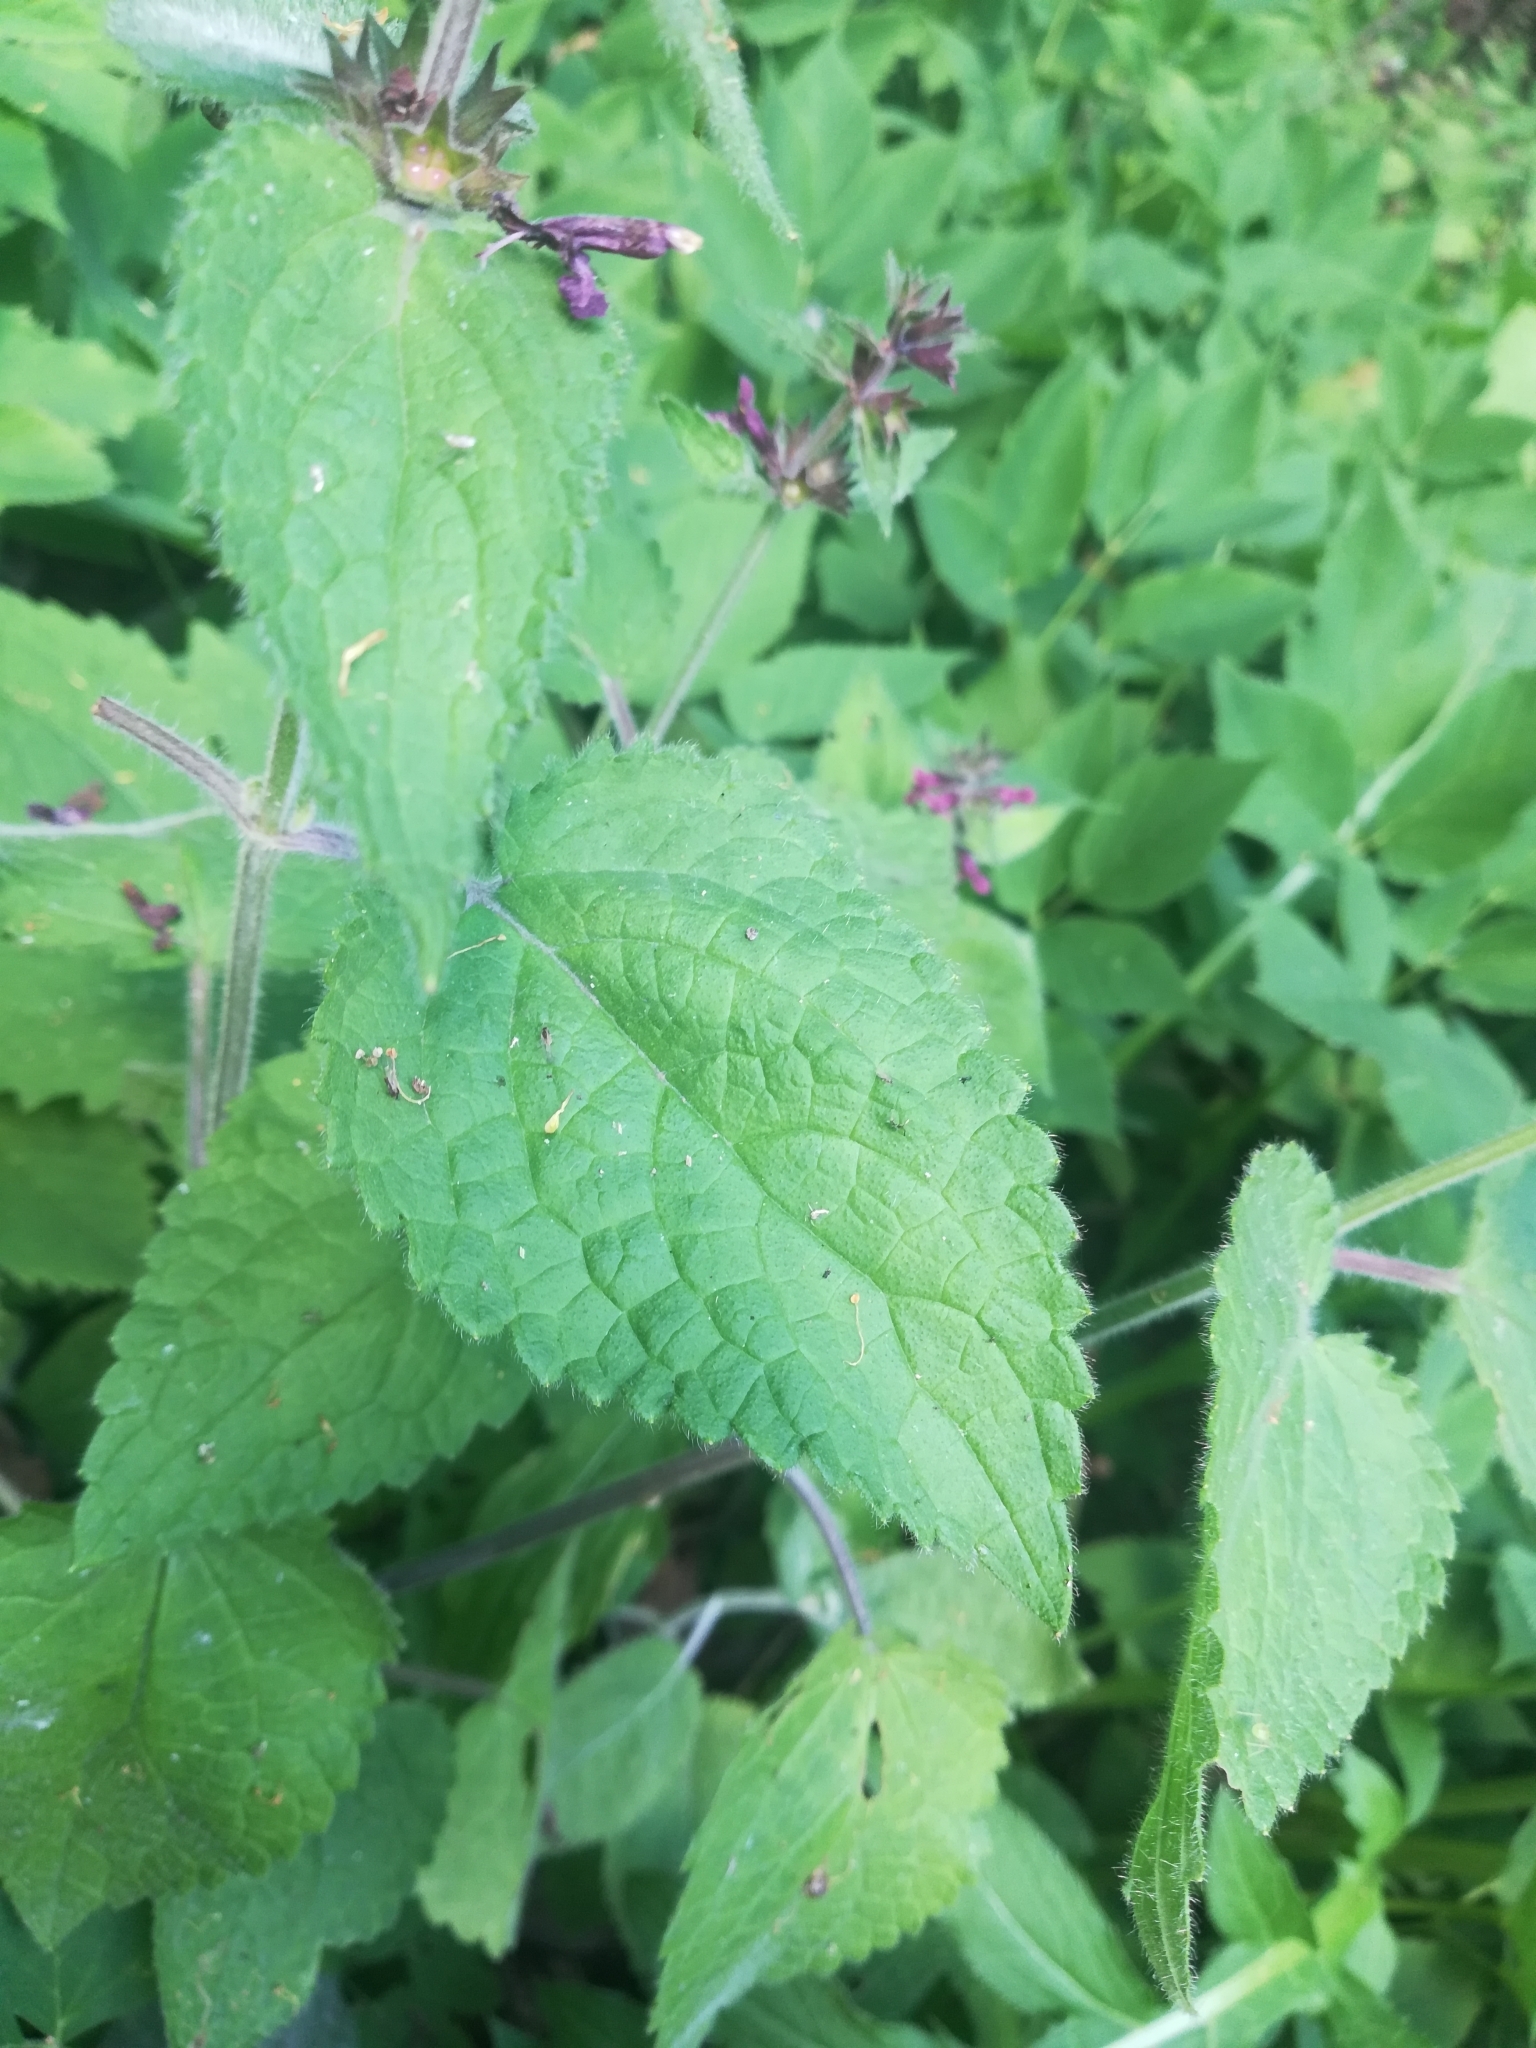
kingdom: Plantae
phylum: Tracheophyta
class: Magnoliopsida
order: Lamiales
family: Lamiaceae
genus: Stachys
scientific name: Stachys sylvatica
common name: Hedge woundwort
